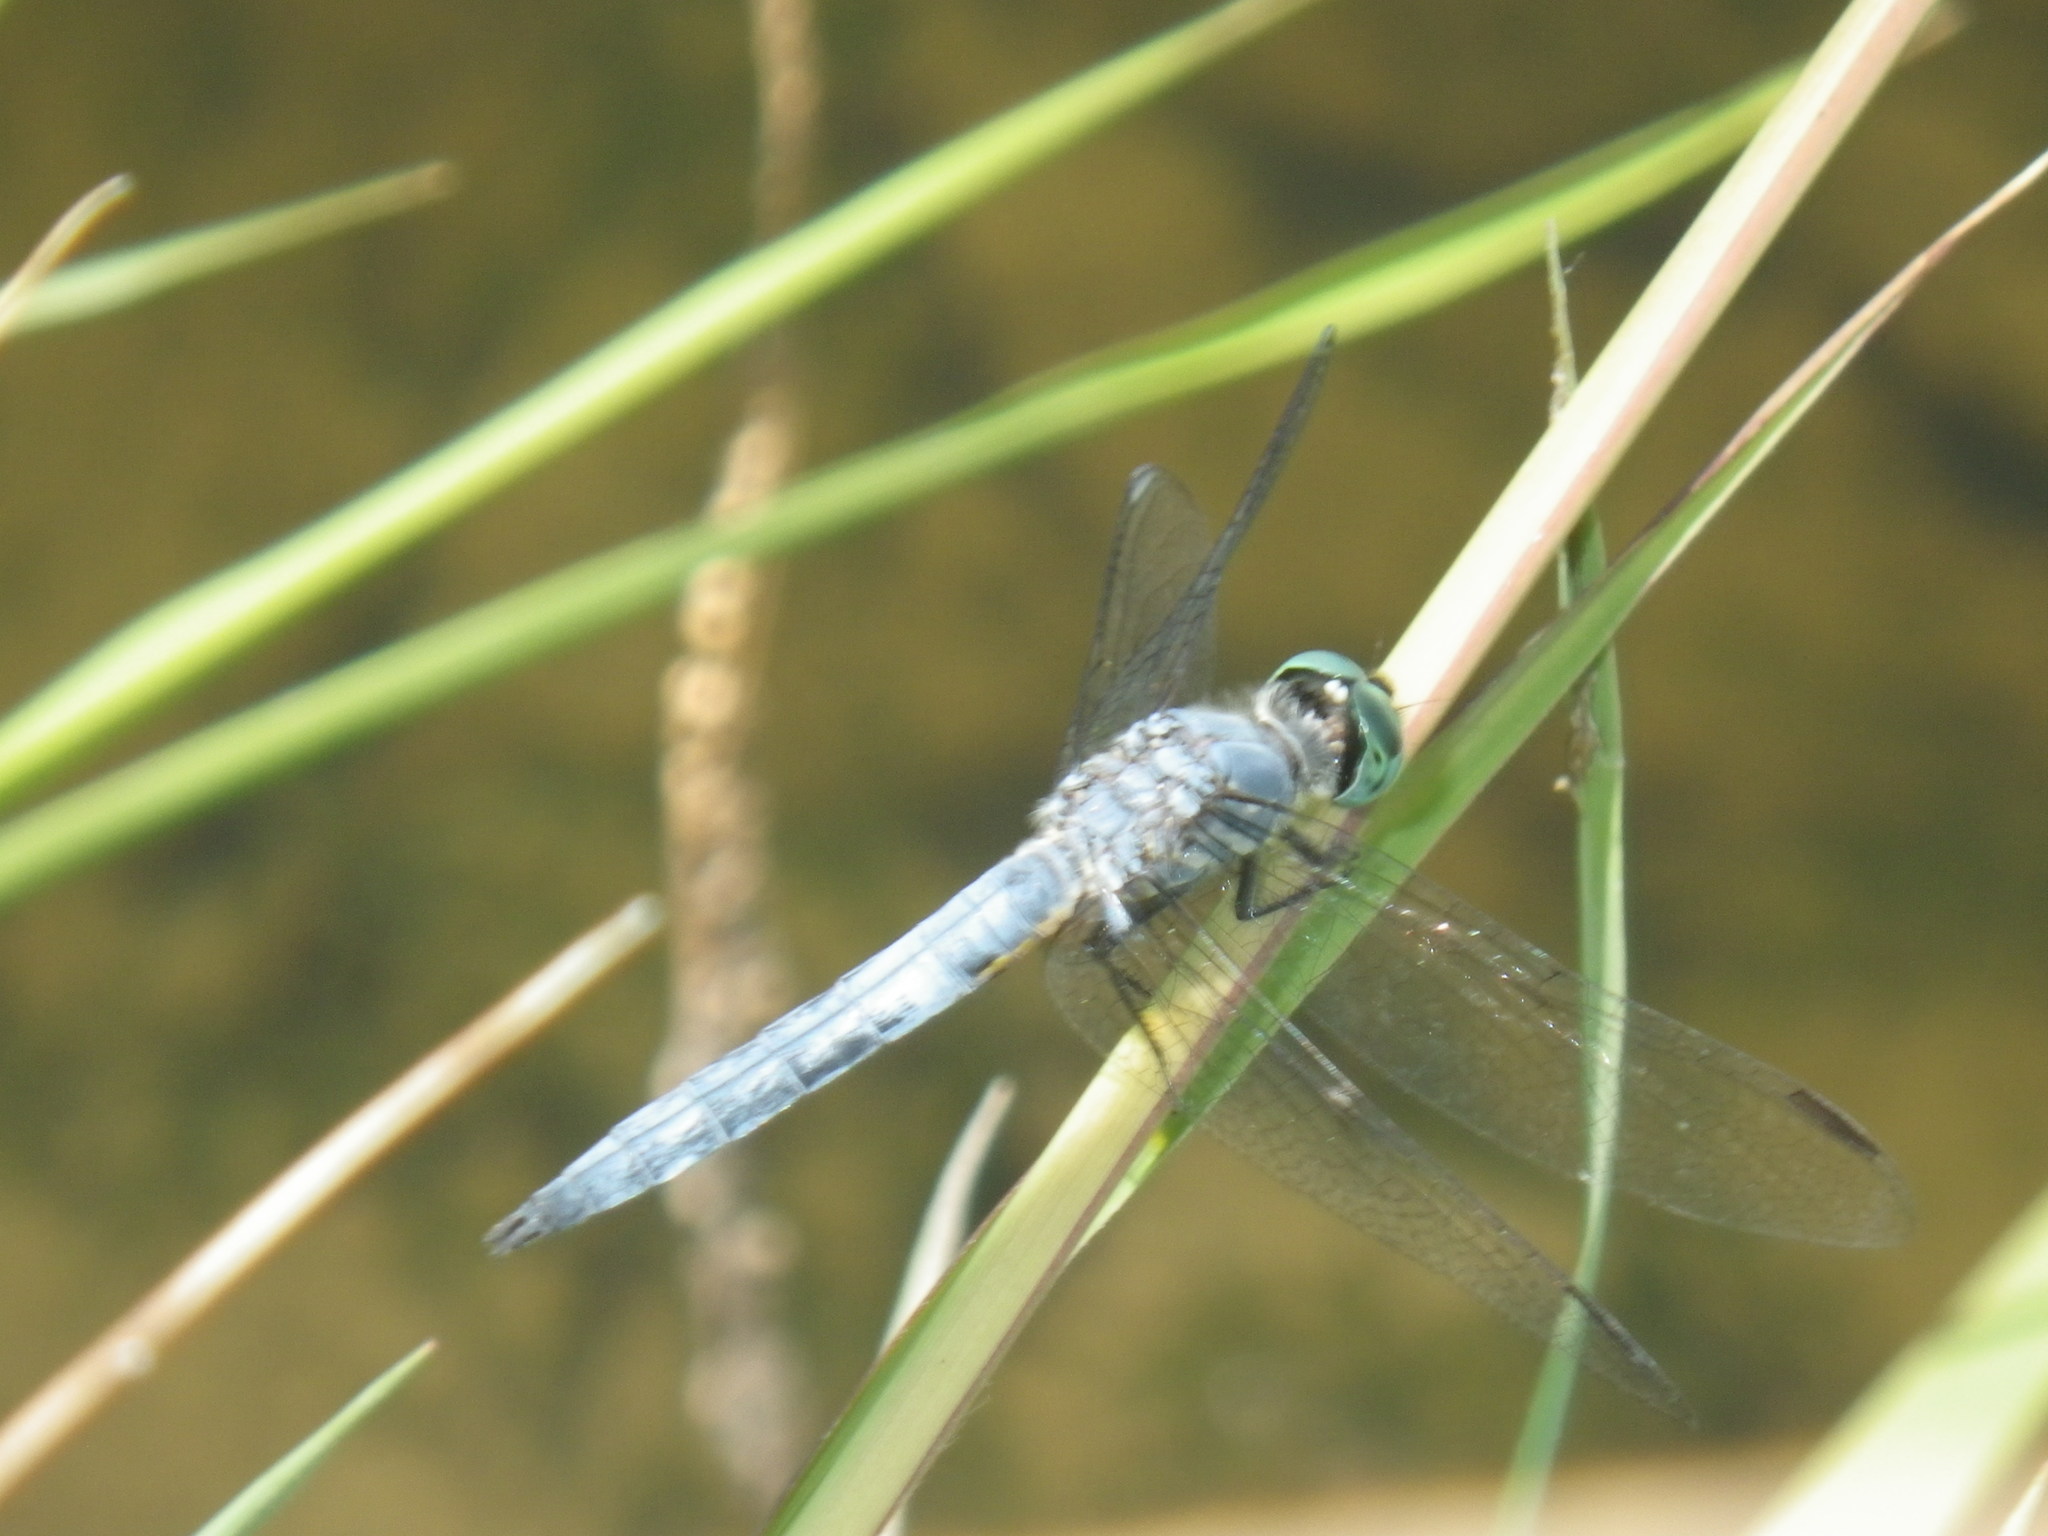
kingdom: Animalia
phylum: Arthropoda
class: Insecta
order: Odonata
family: Libellulidae
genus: Pachydiplax
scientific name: Pachydiplax longipennis
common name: Blue dasher
